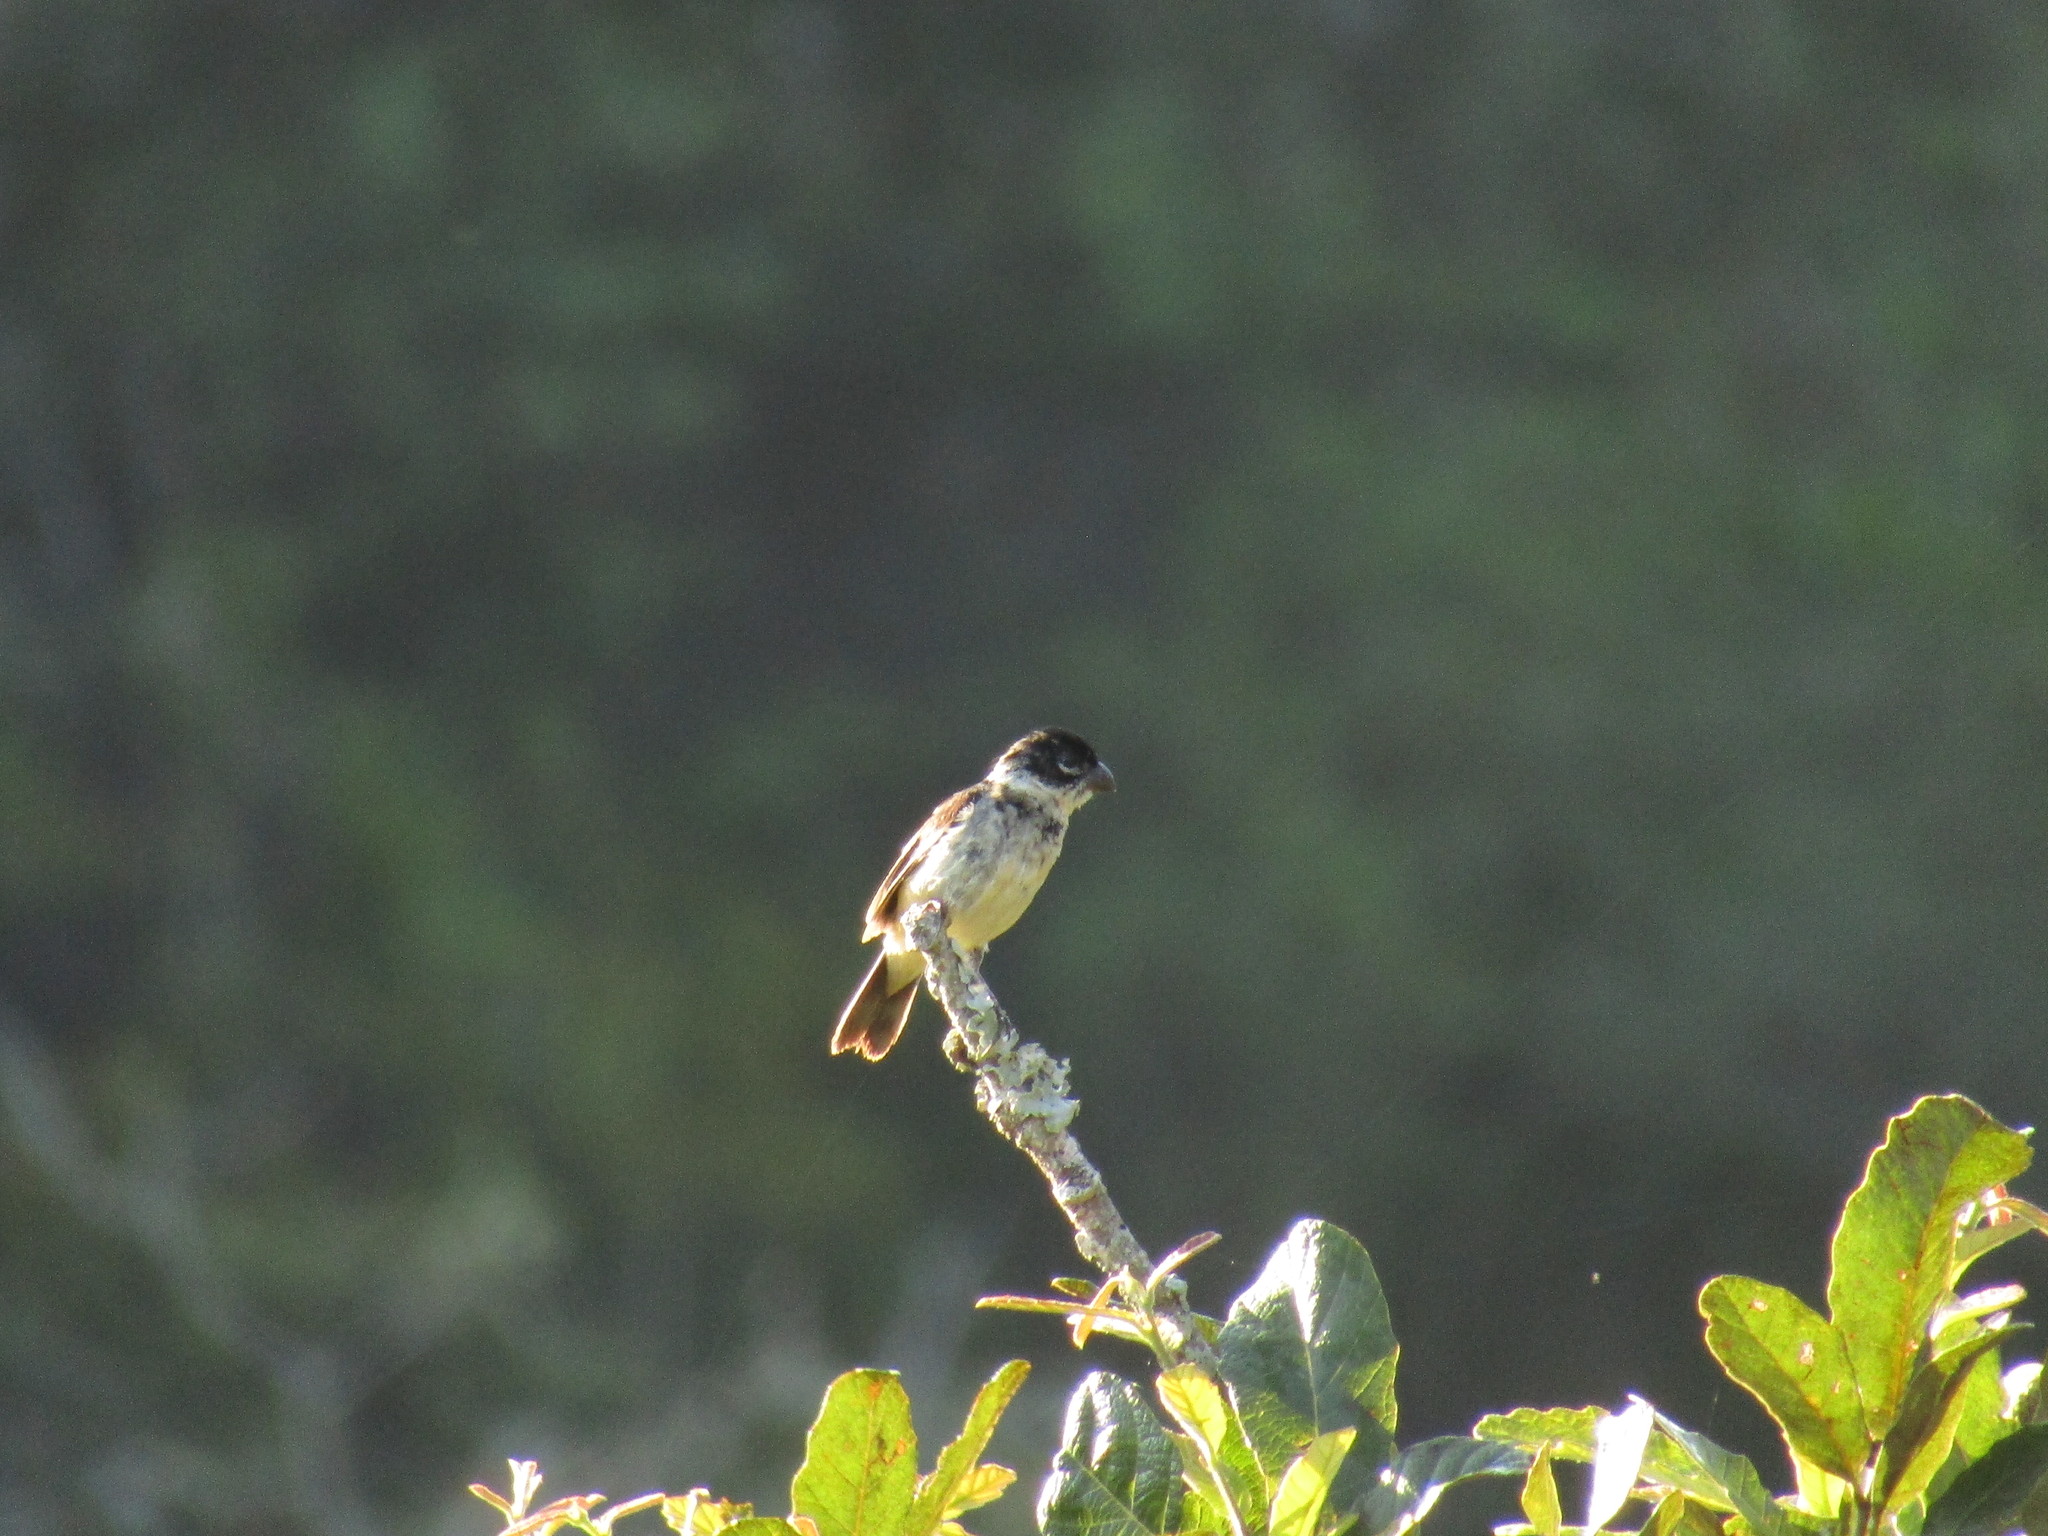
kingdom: Animalia
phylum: Chordata
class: Aves
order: Passeriformes
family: Thraupidae
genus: Sporophila
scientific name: Sporophila morelleti
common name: Morelet's seedeater
